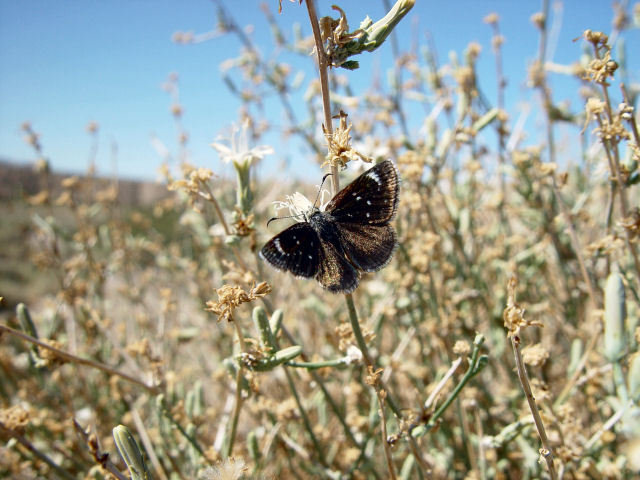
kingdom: Animalia
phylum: Arthropoda
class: Insecta
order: Lepidoptera
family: Hesperiidae
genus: Pholisora
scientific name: Pholisora libya
